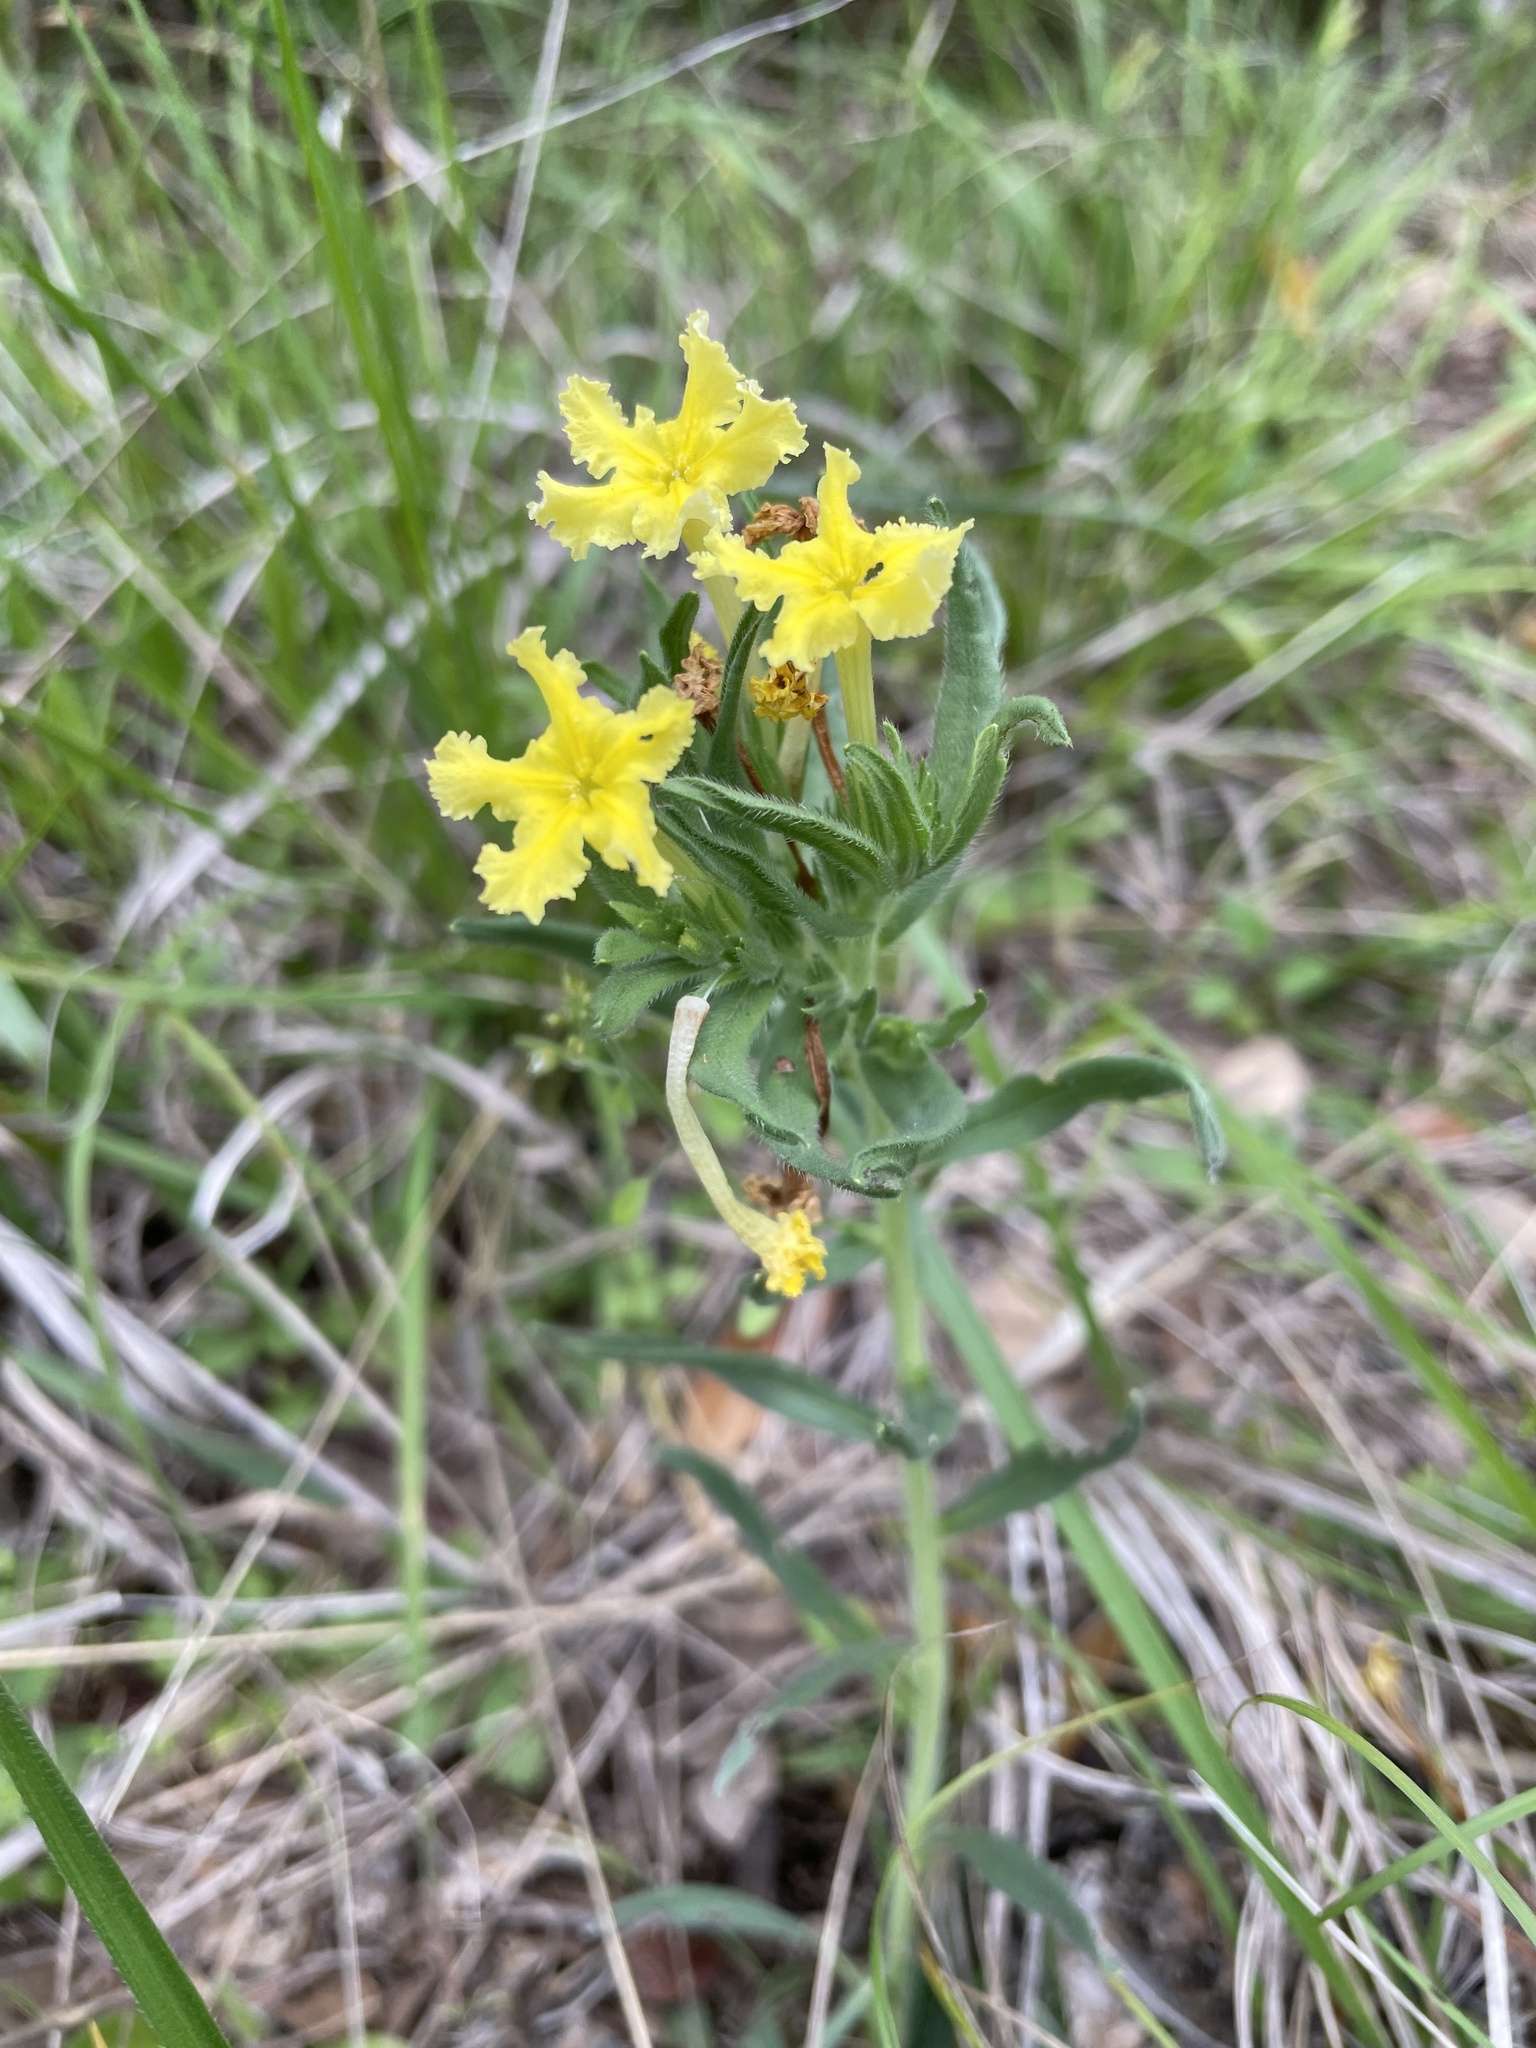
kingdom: Plantae
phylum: Tracheophyta
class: Magnoliopsida
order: Boraginales
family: Boraginaceae
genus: Lithospermum
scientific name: Lithospermum incisum
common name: Fringed gromwell
